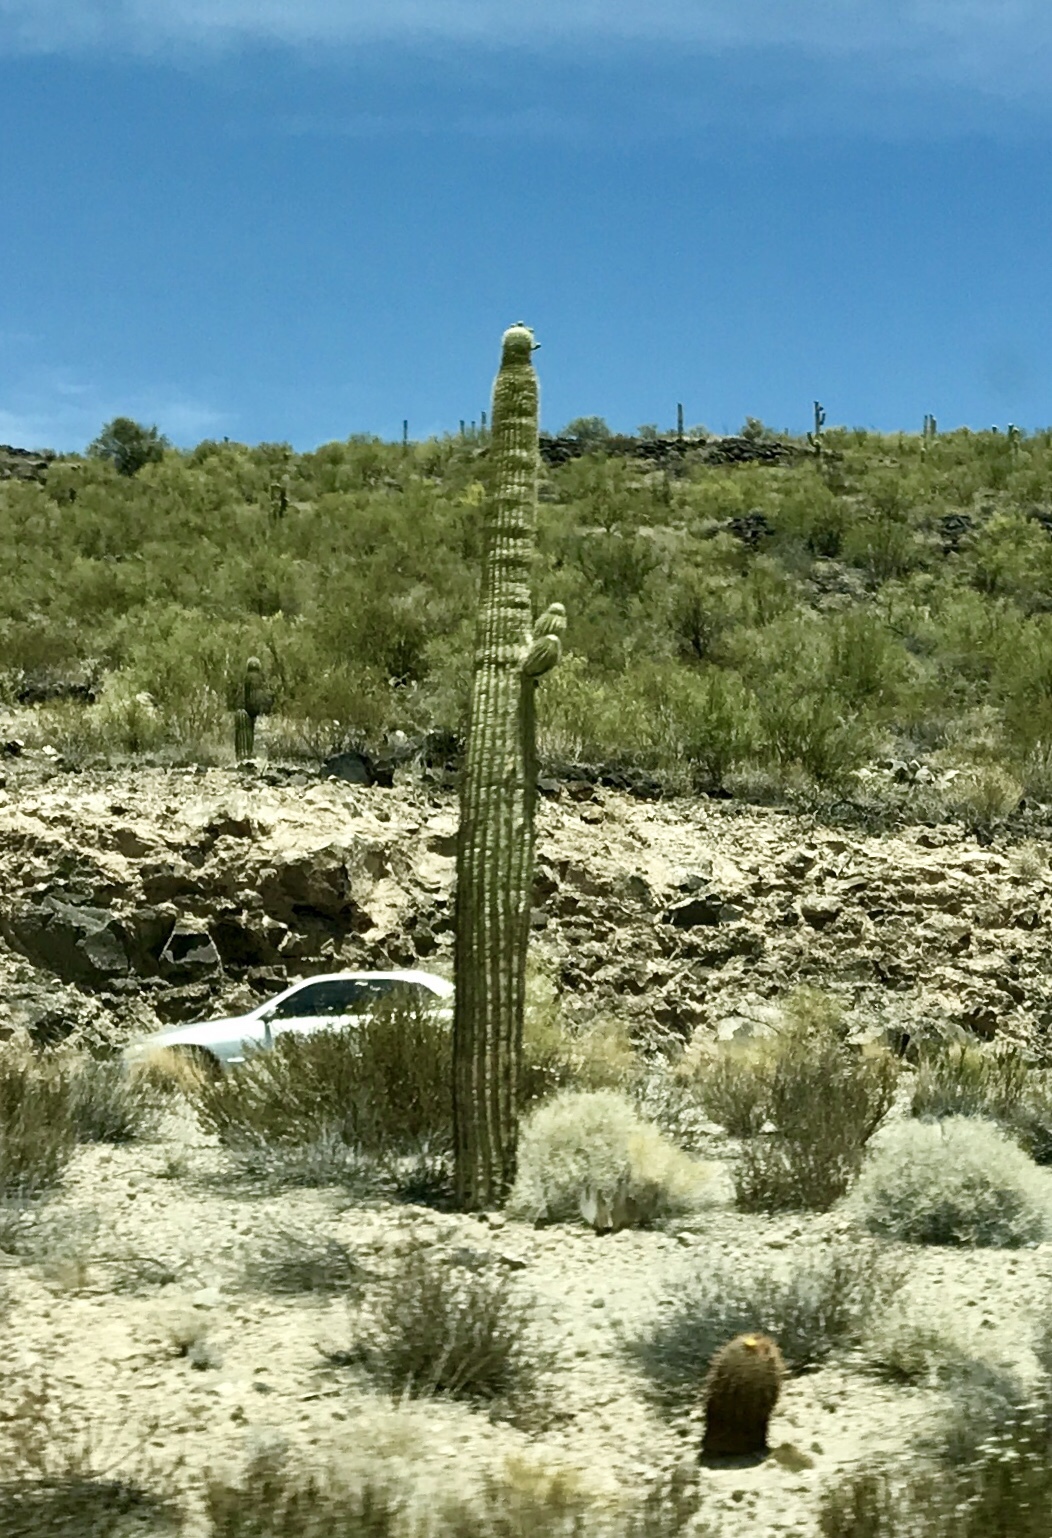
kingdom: Plantae
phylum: Tracheophyta
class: Magnoliopsida
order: Caryophyllales
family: Cactaceae
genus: Carnegiea
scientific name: Carnegiea gigantea
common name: Saguaro
